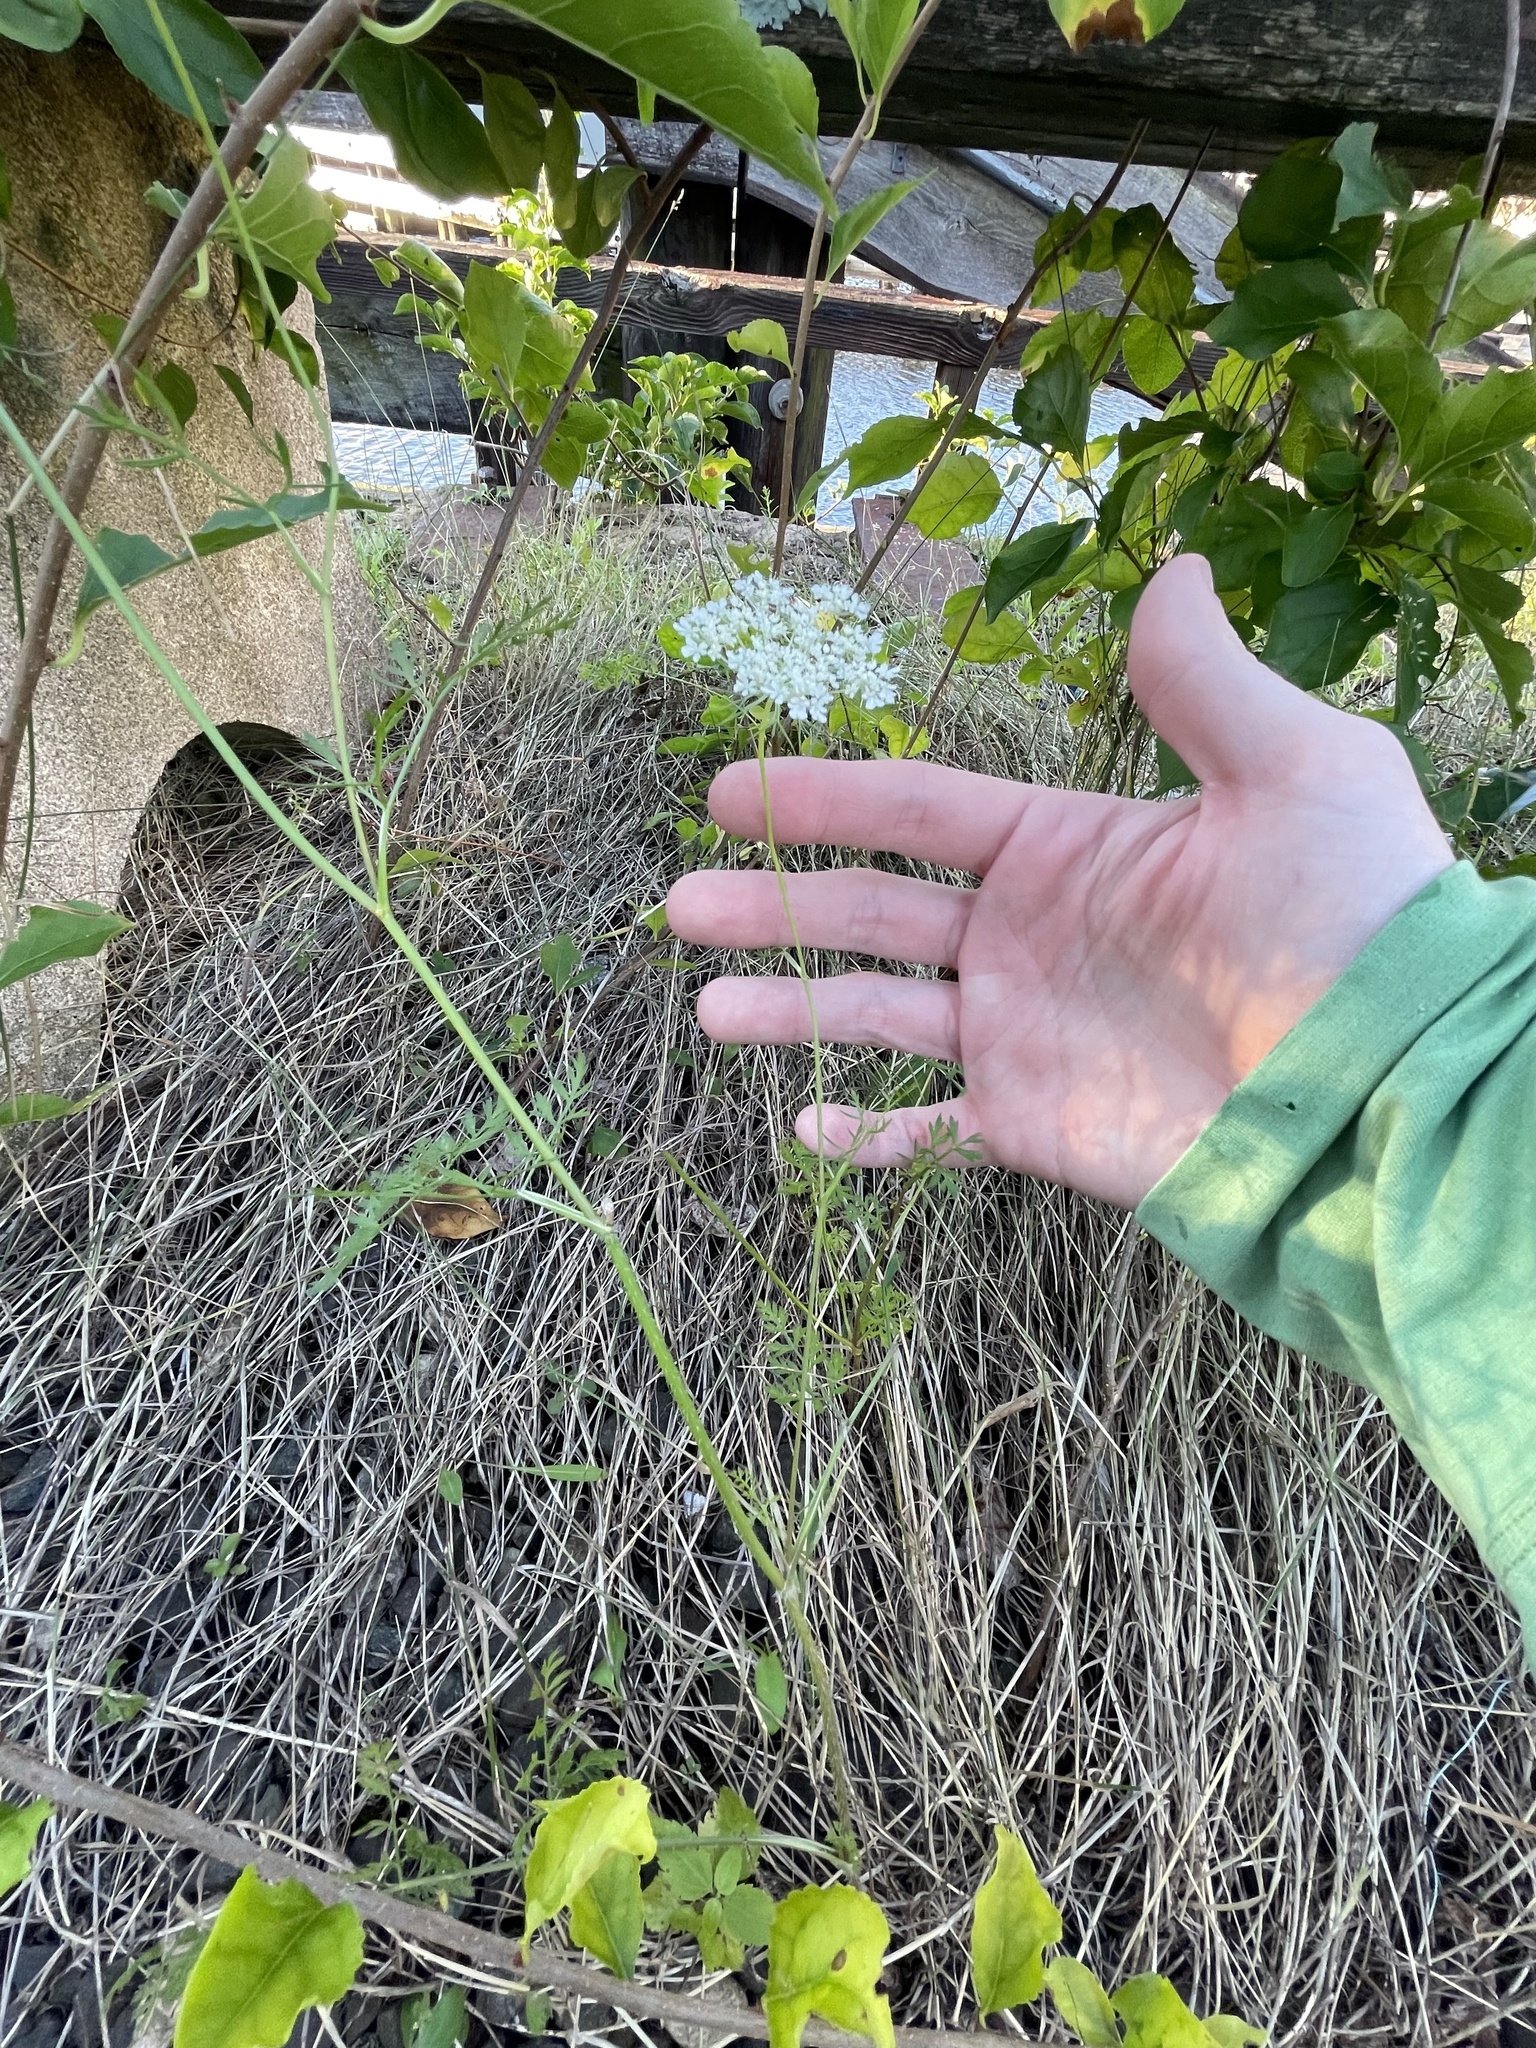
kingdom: Plantae
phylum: Tracheophyta
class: Magnoliopsida
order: Apiales
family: Apiaceae
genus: Daucus
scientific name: Daucus carota
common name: Wild carrot
